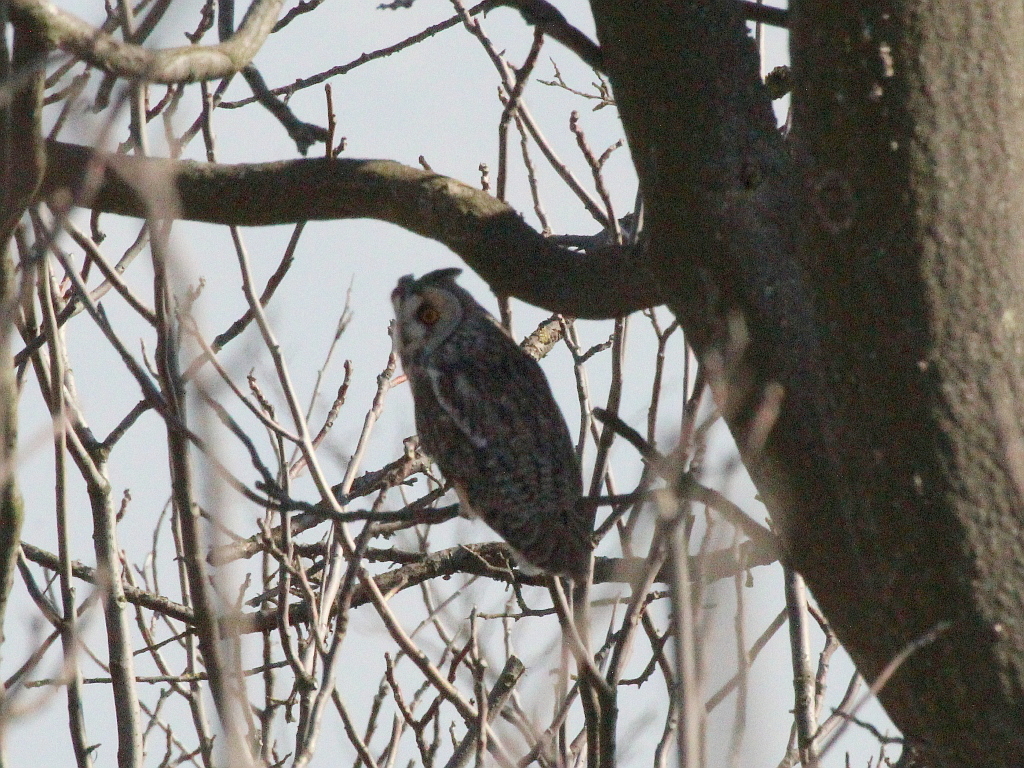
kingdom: Animalia
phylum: Chordata
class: Aves
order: Strigiformes
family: Strigidae
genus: Asio
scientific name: Asio otus
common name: Long-eared owl
